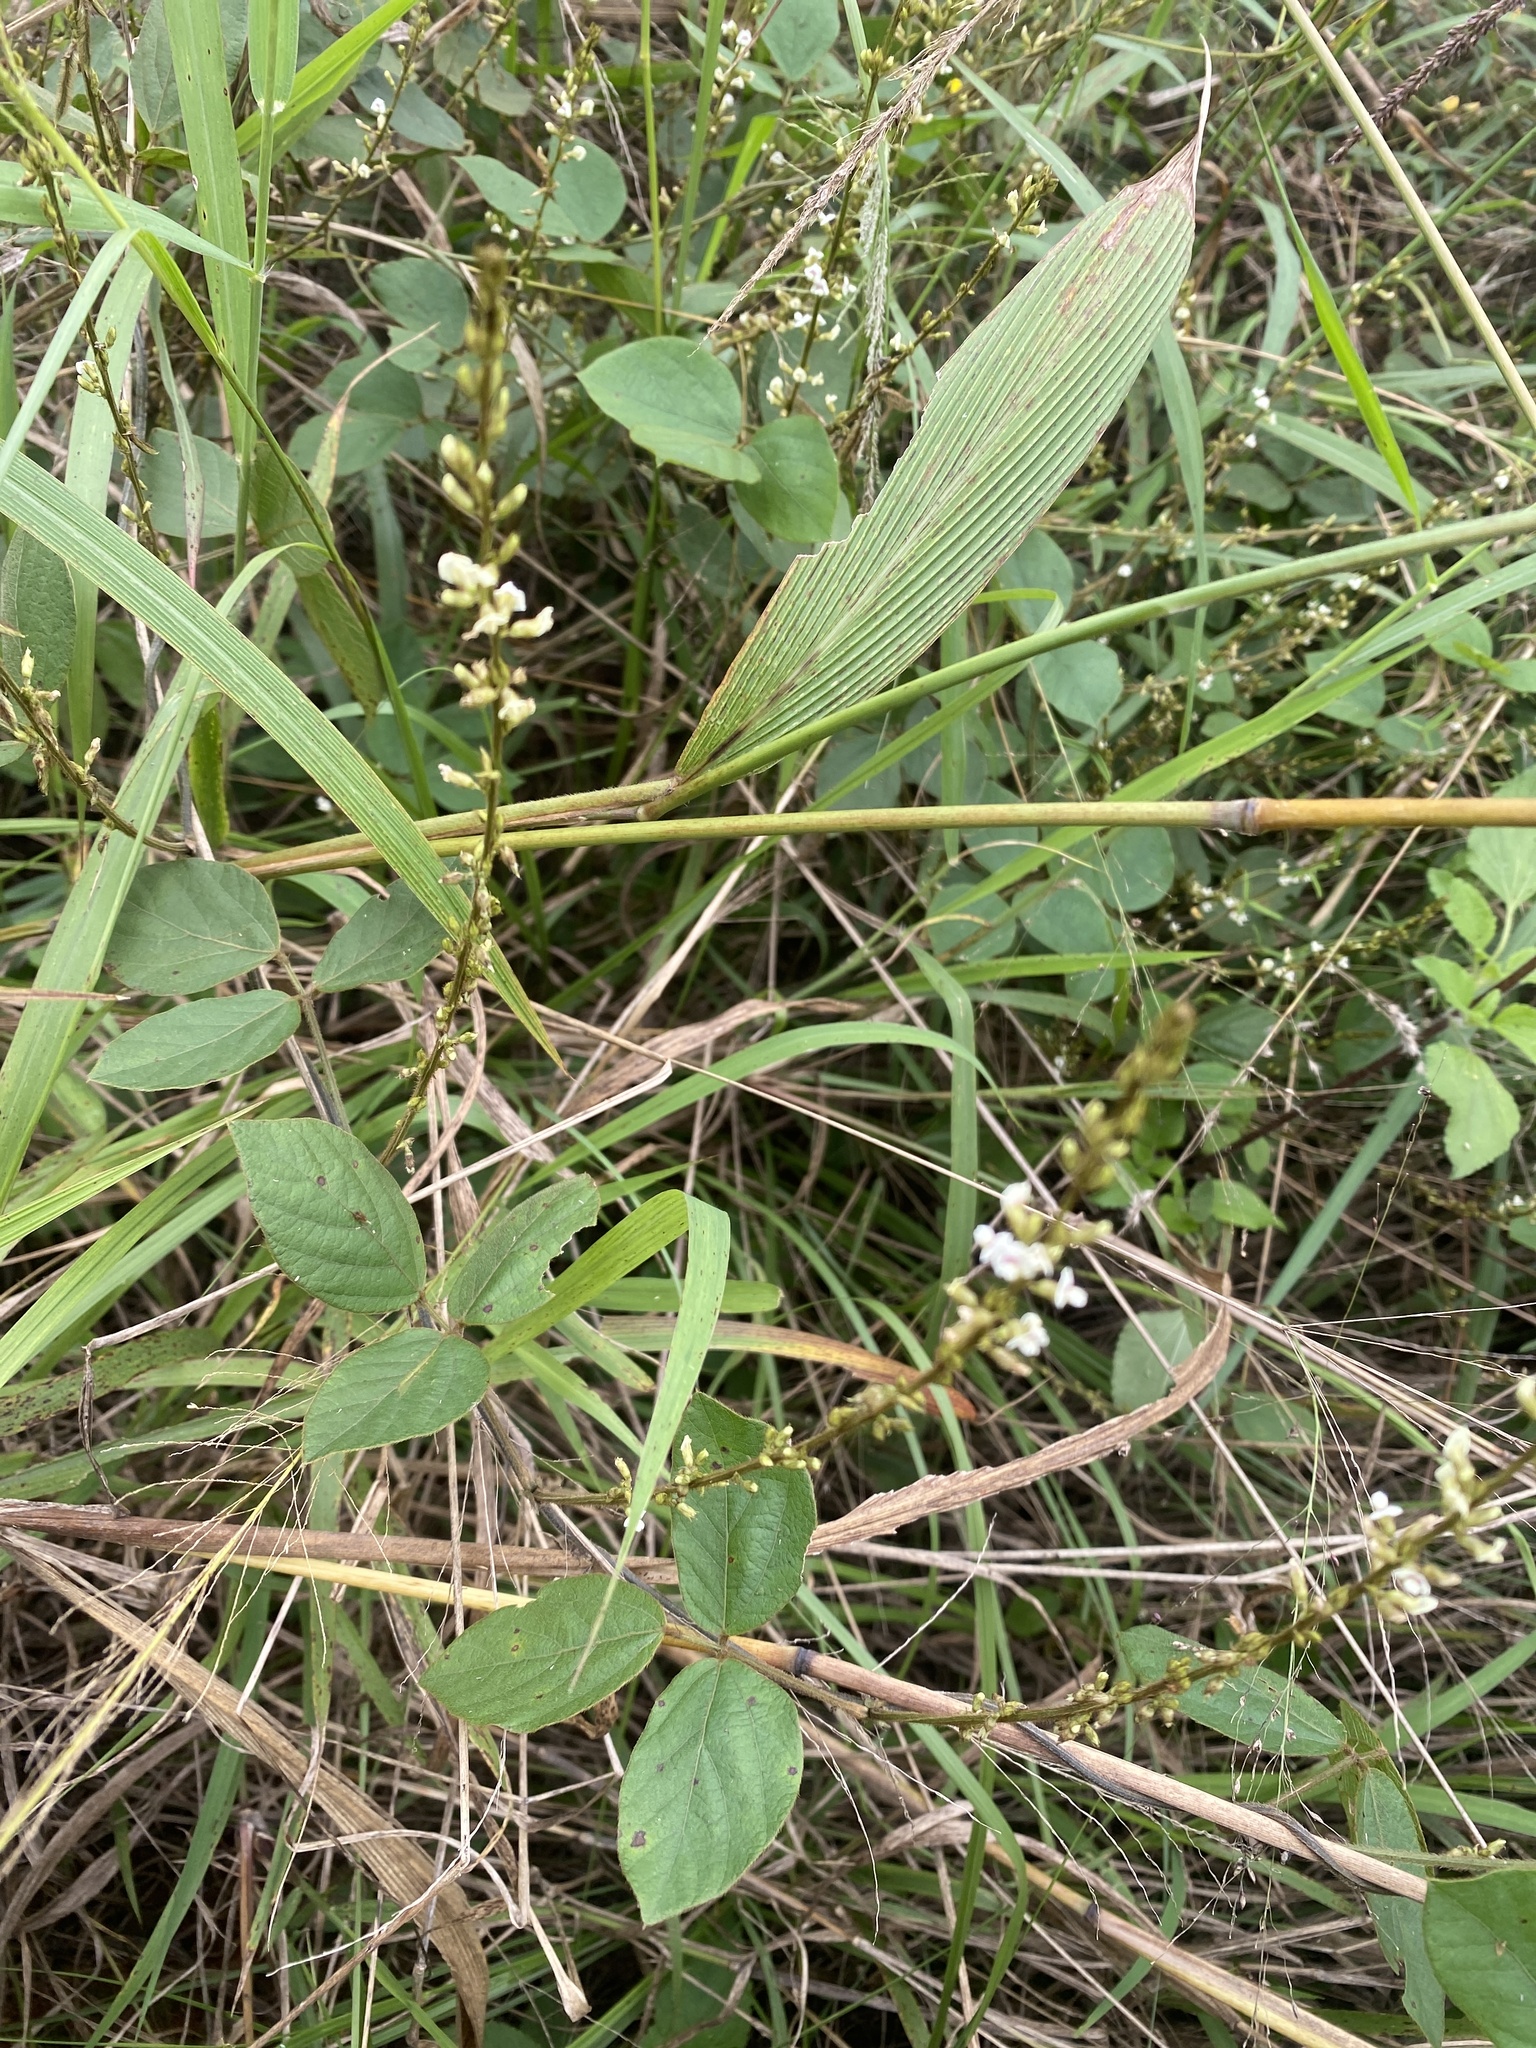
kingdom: Plantae
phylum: Tracheophyta
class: Magnoliopsida
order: Fabales
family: Fabaceae
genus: Neonotonia
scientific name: Neonotonia wightii
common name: Perennial soybean
